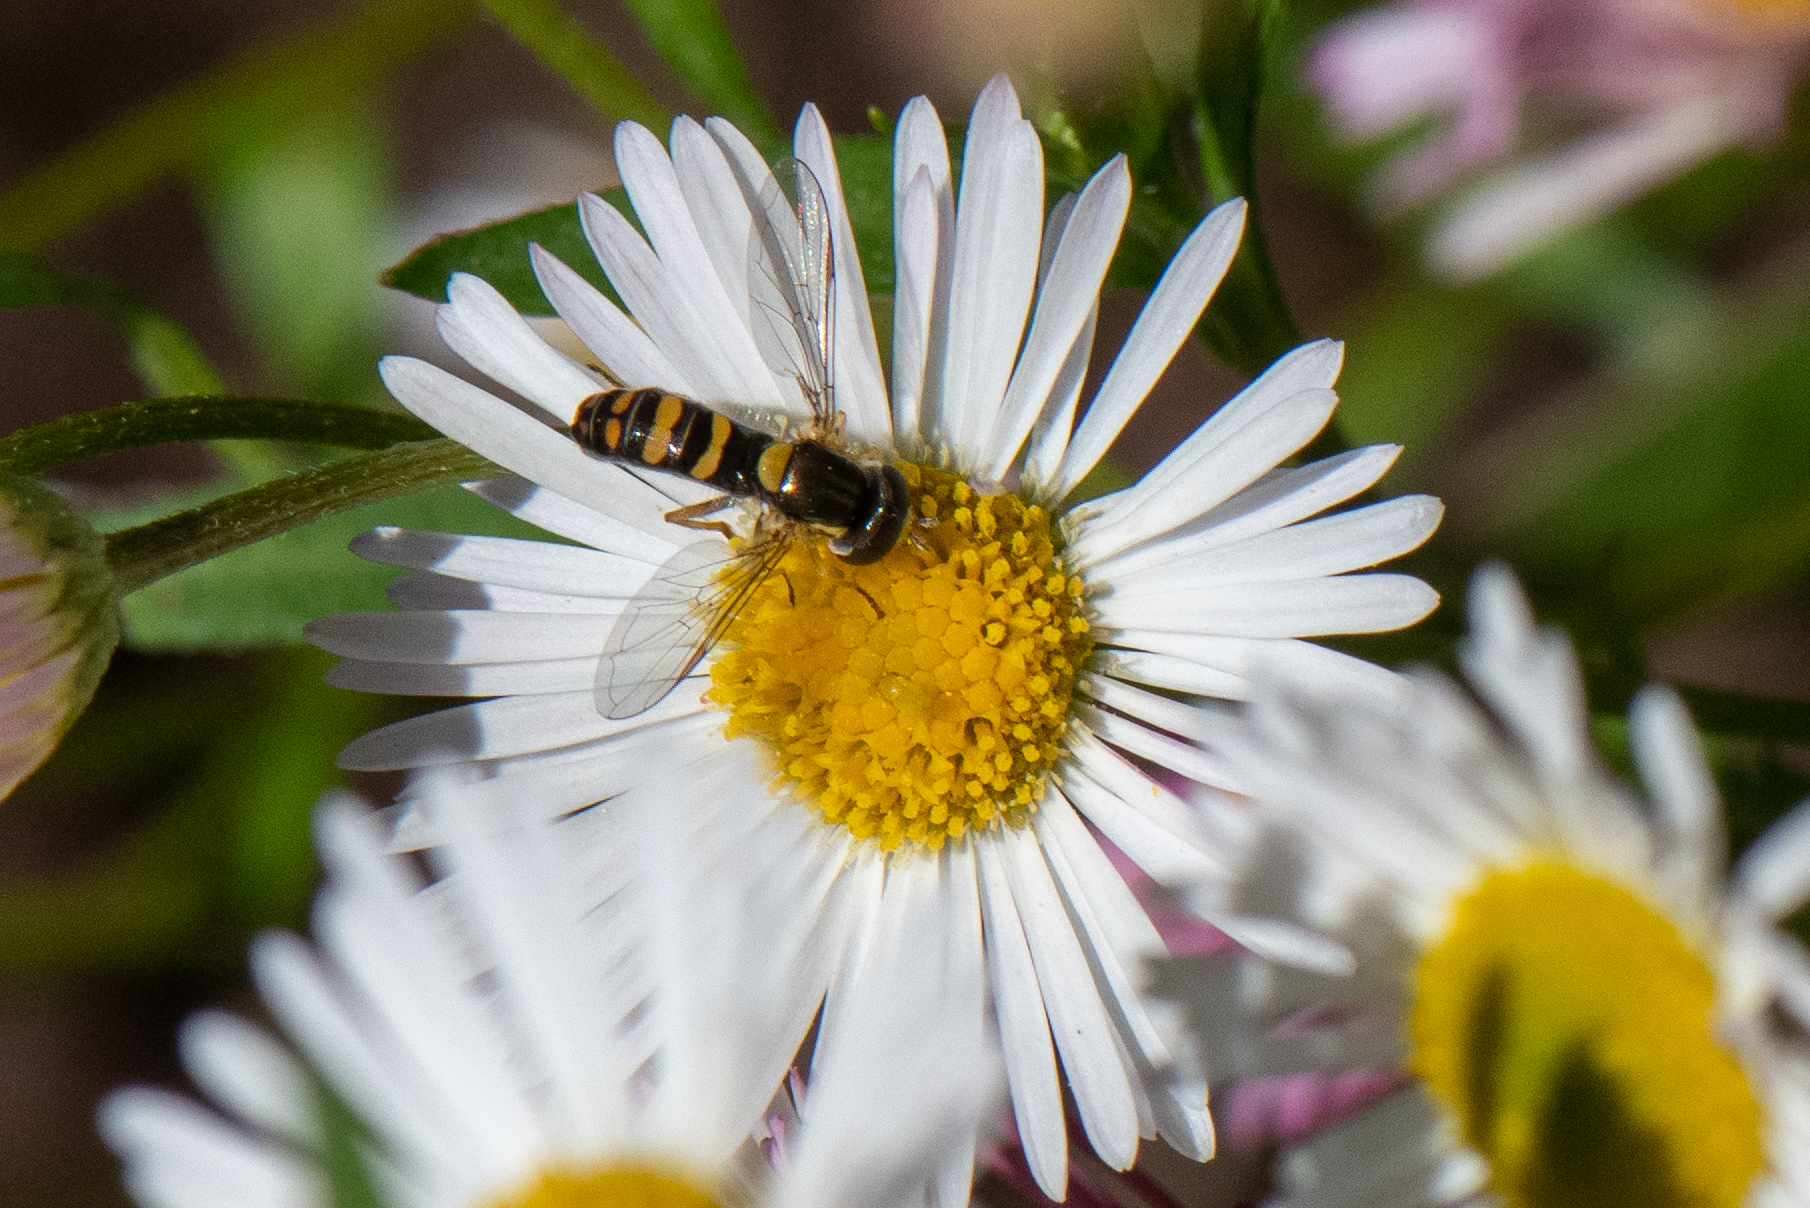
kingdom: Animalia
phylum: Arthropoda
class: Insecta
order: Diptera
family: Syrphidae
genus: Sphaerophoria
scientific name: Sphaerophoria sulphuripes
